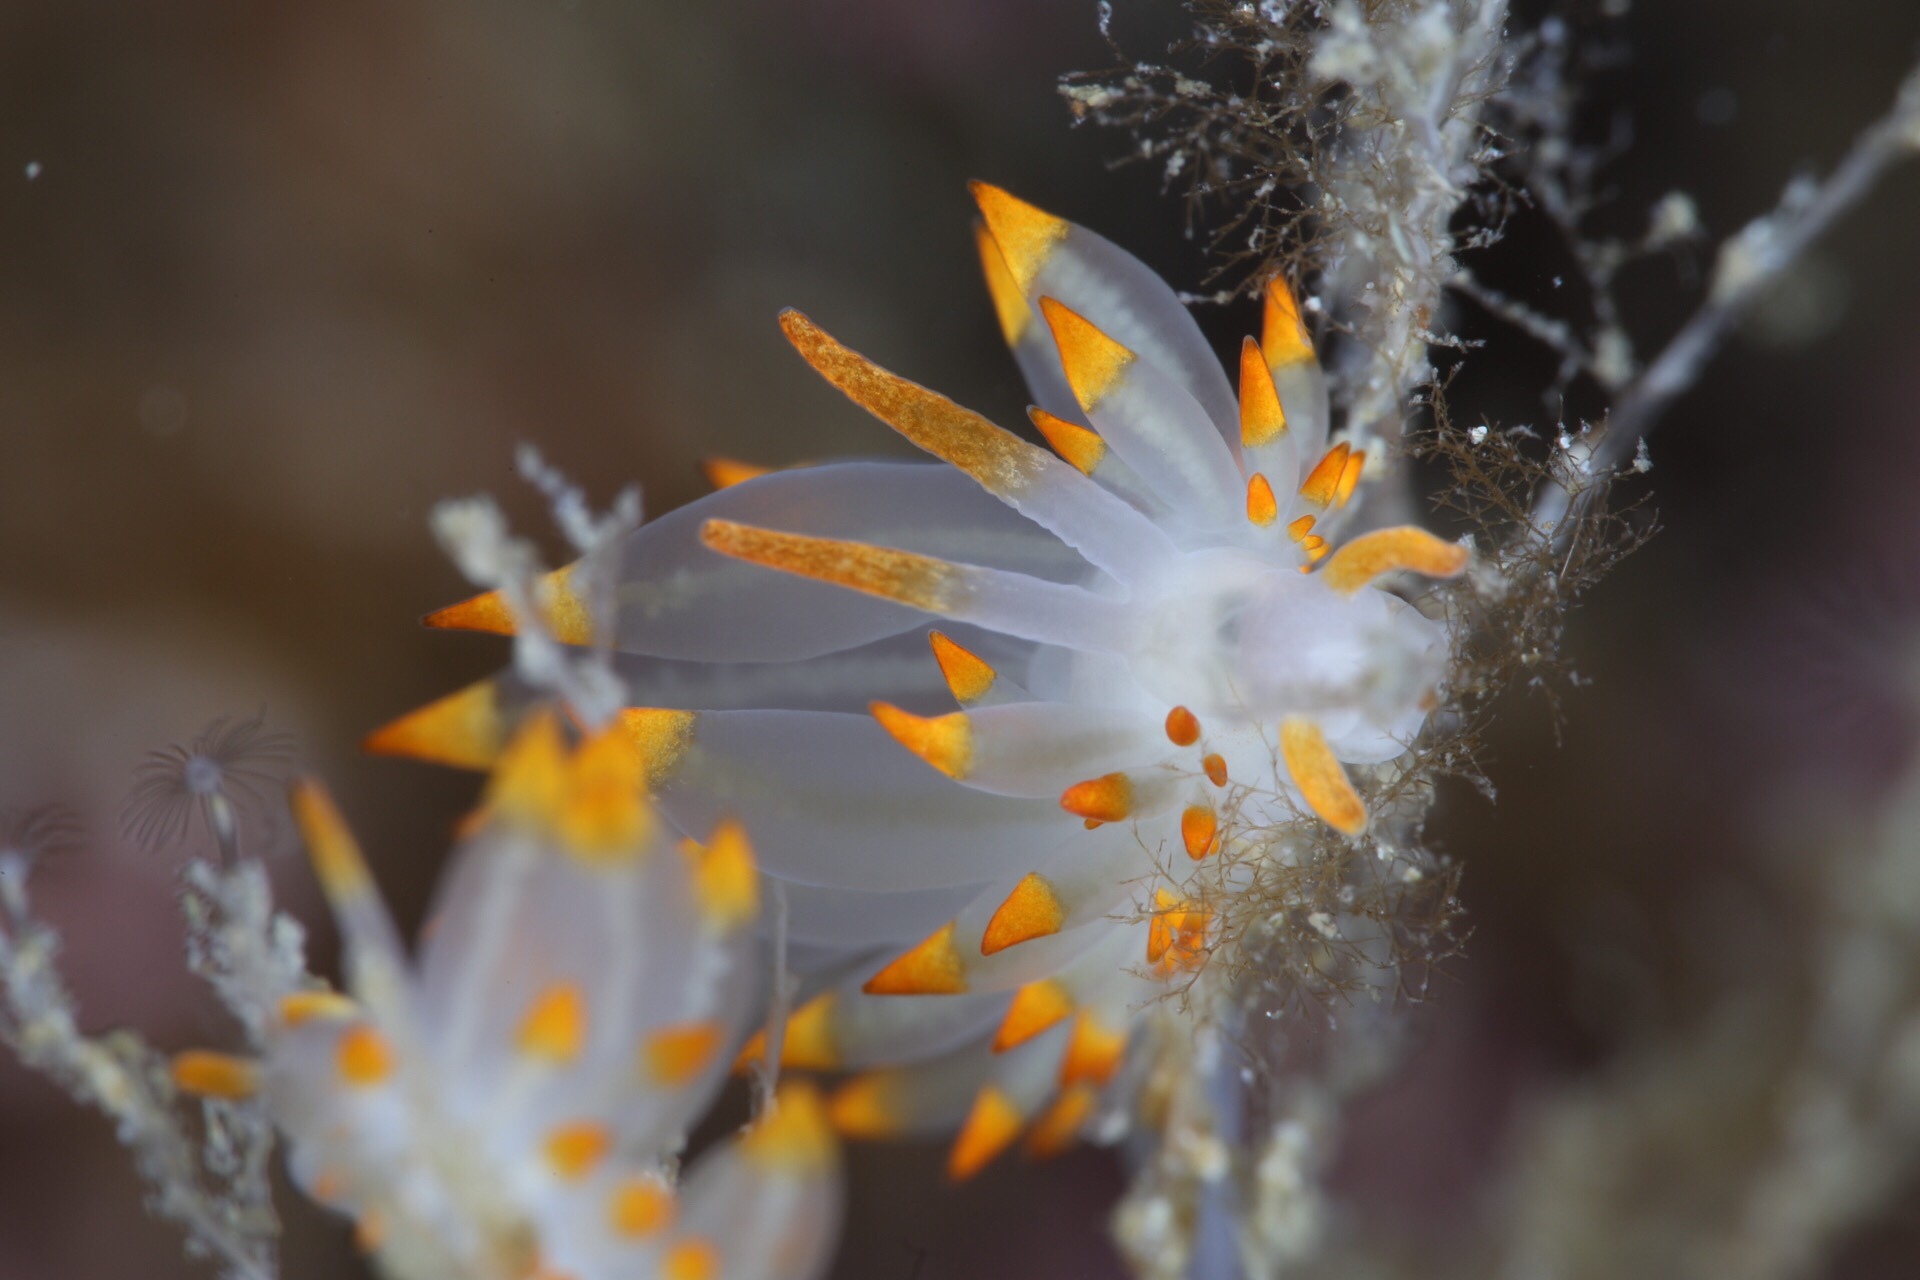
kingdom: Animalia
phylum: Mollusca
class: Gastropoda
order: Nudibranchia
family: Eubranchidae
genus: Amphorina
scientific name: Amphorina farrani
